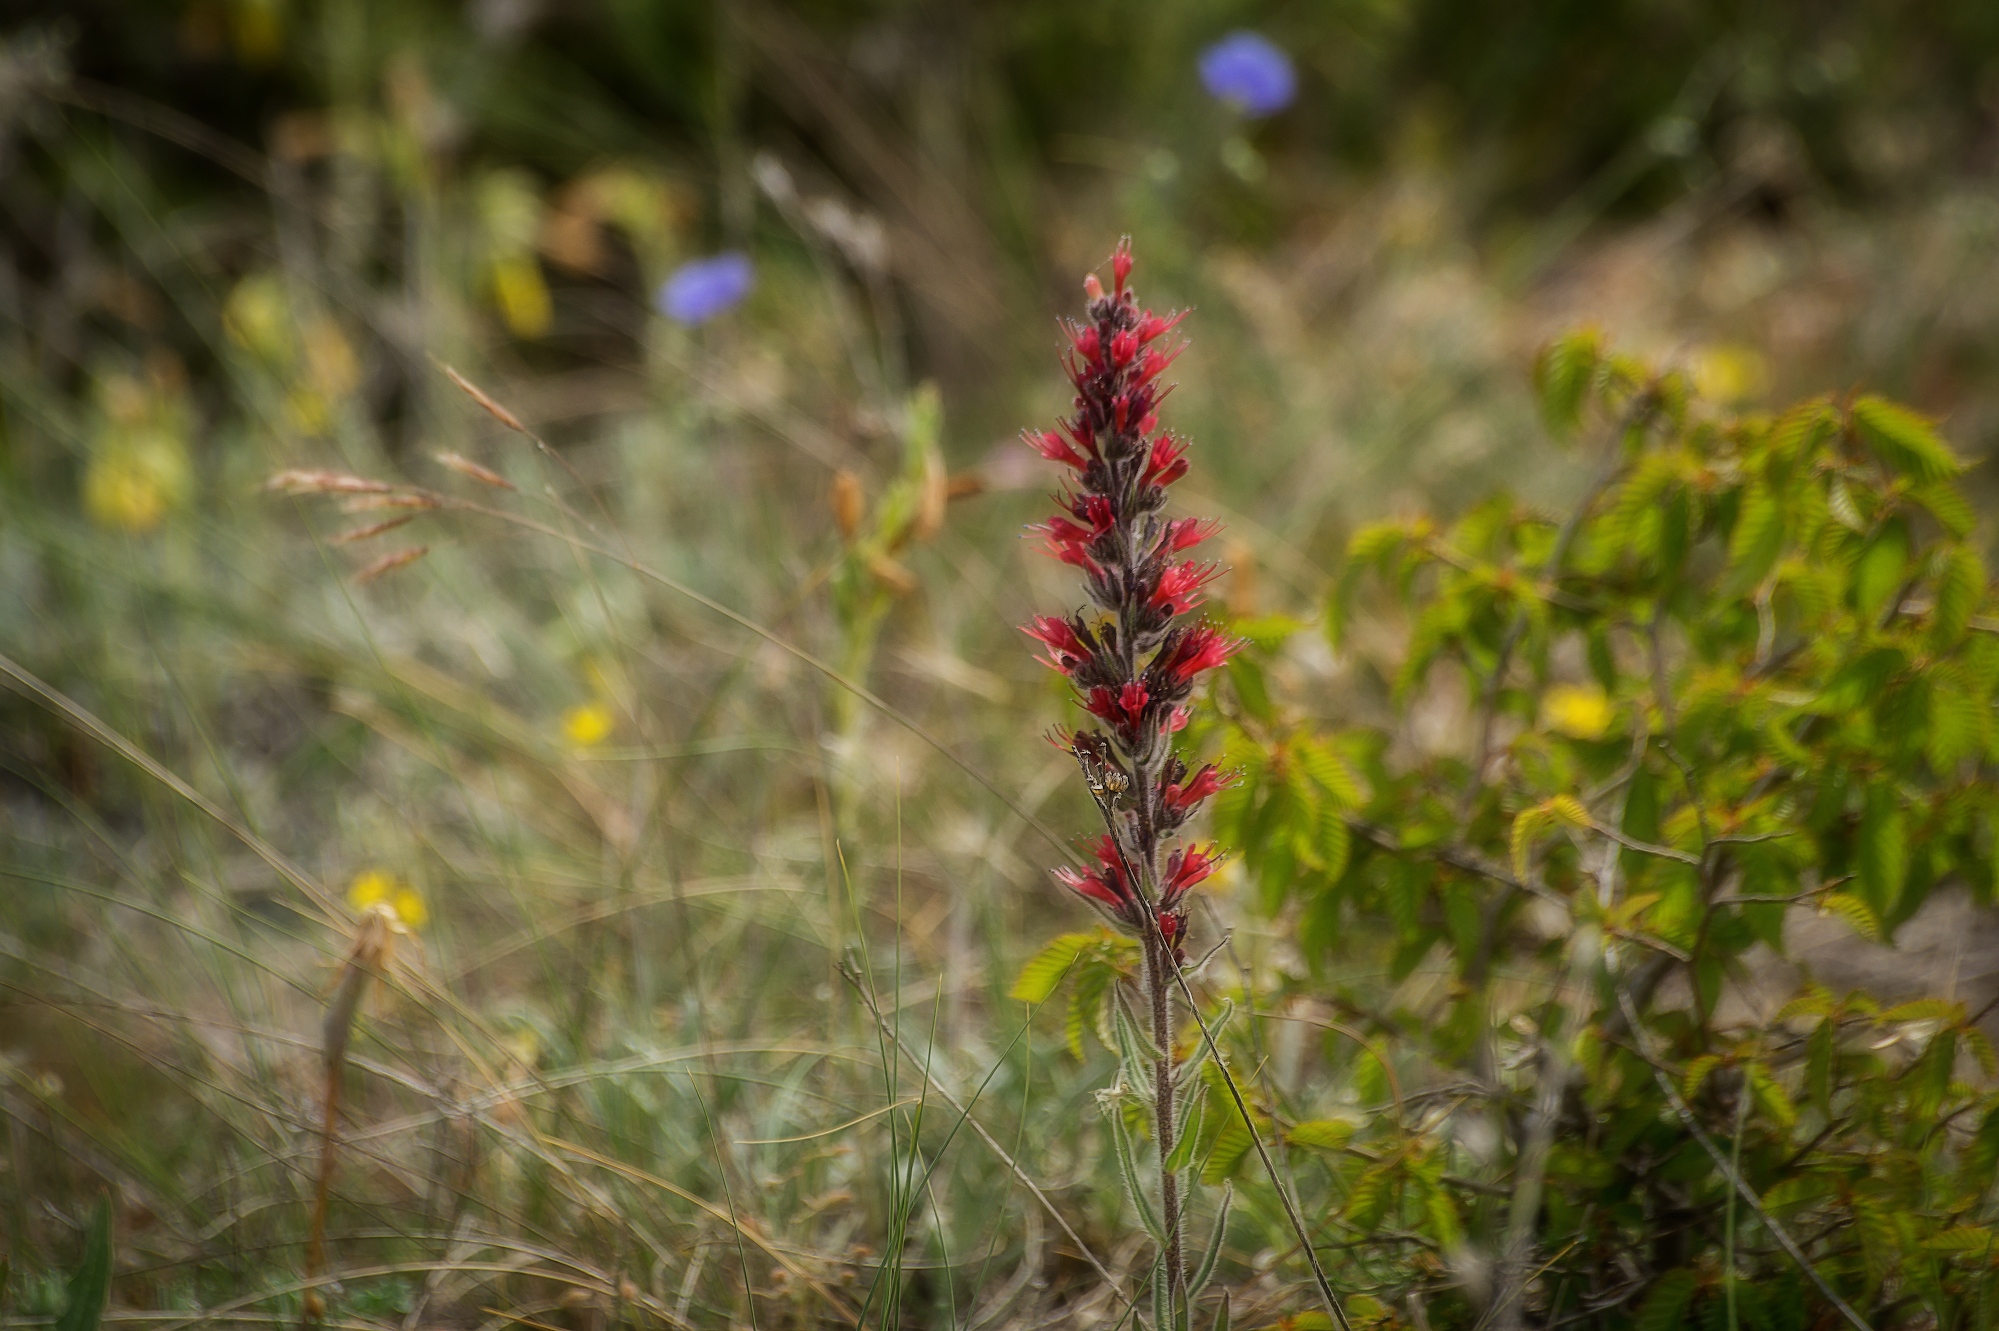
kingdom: Plantae
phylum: Tracheophyta
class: Magnoliopsida
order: Boraginales
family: Boraginaceae
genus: Pontechium
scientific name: Pontechium maculatum
